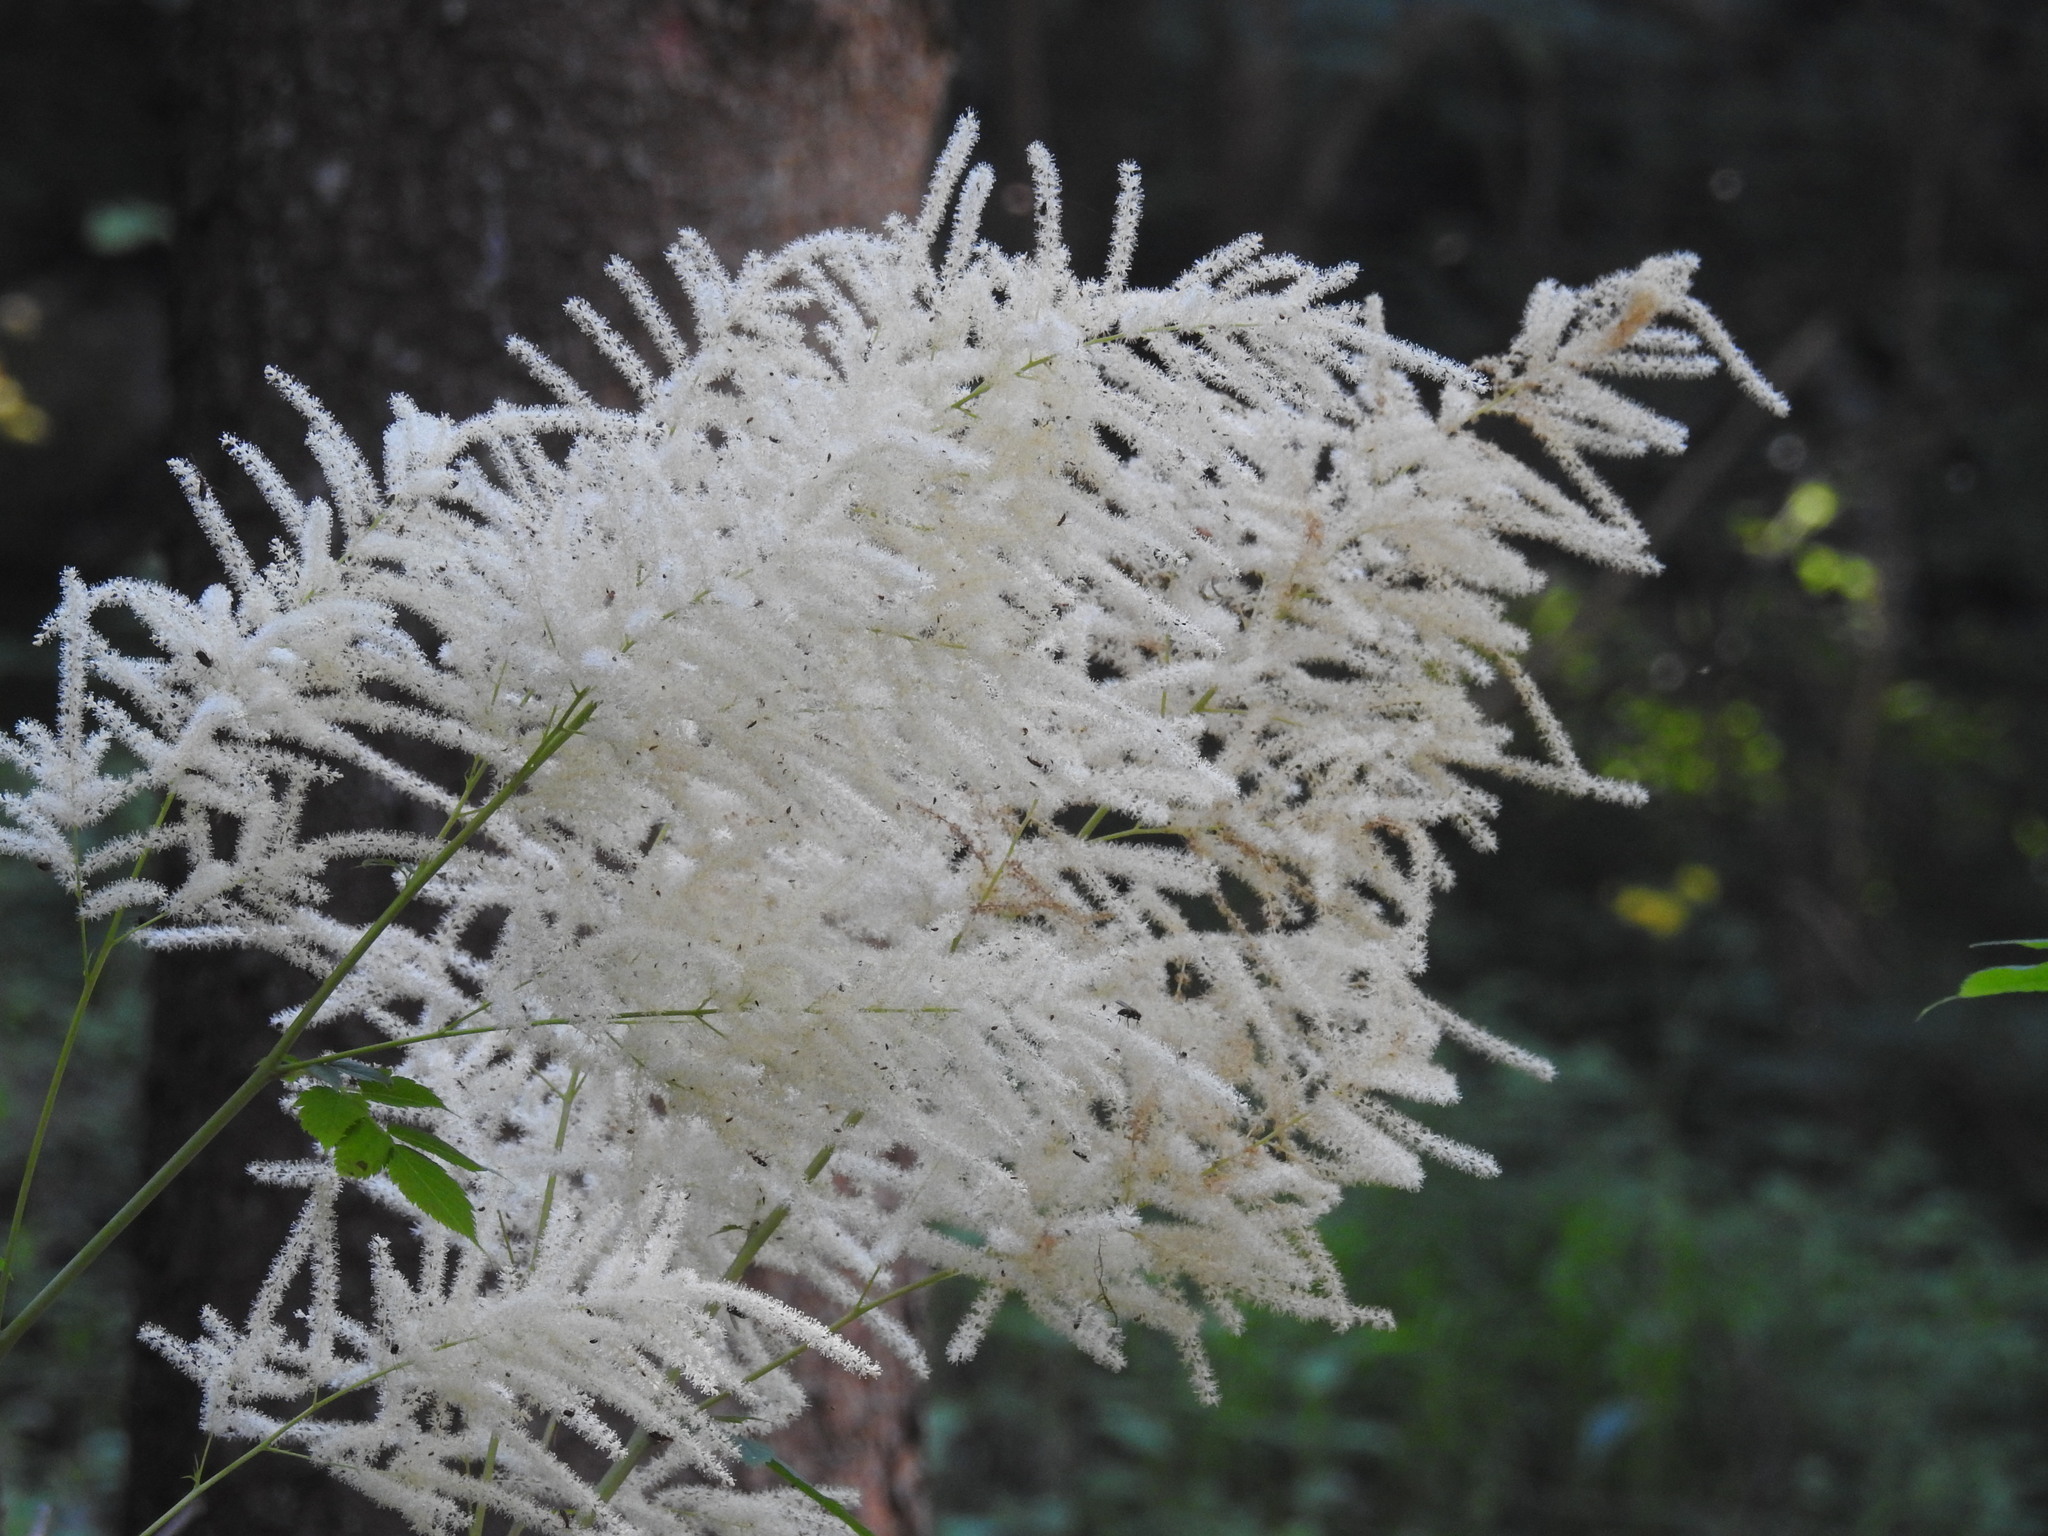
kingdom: Plantae
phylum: Tracheophyta
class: Magnoliopsida
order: Rosales
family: Rosaceae
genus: Aruncus
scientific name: Aruncus dioicus
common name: Buck's-beard
